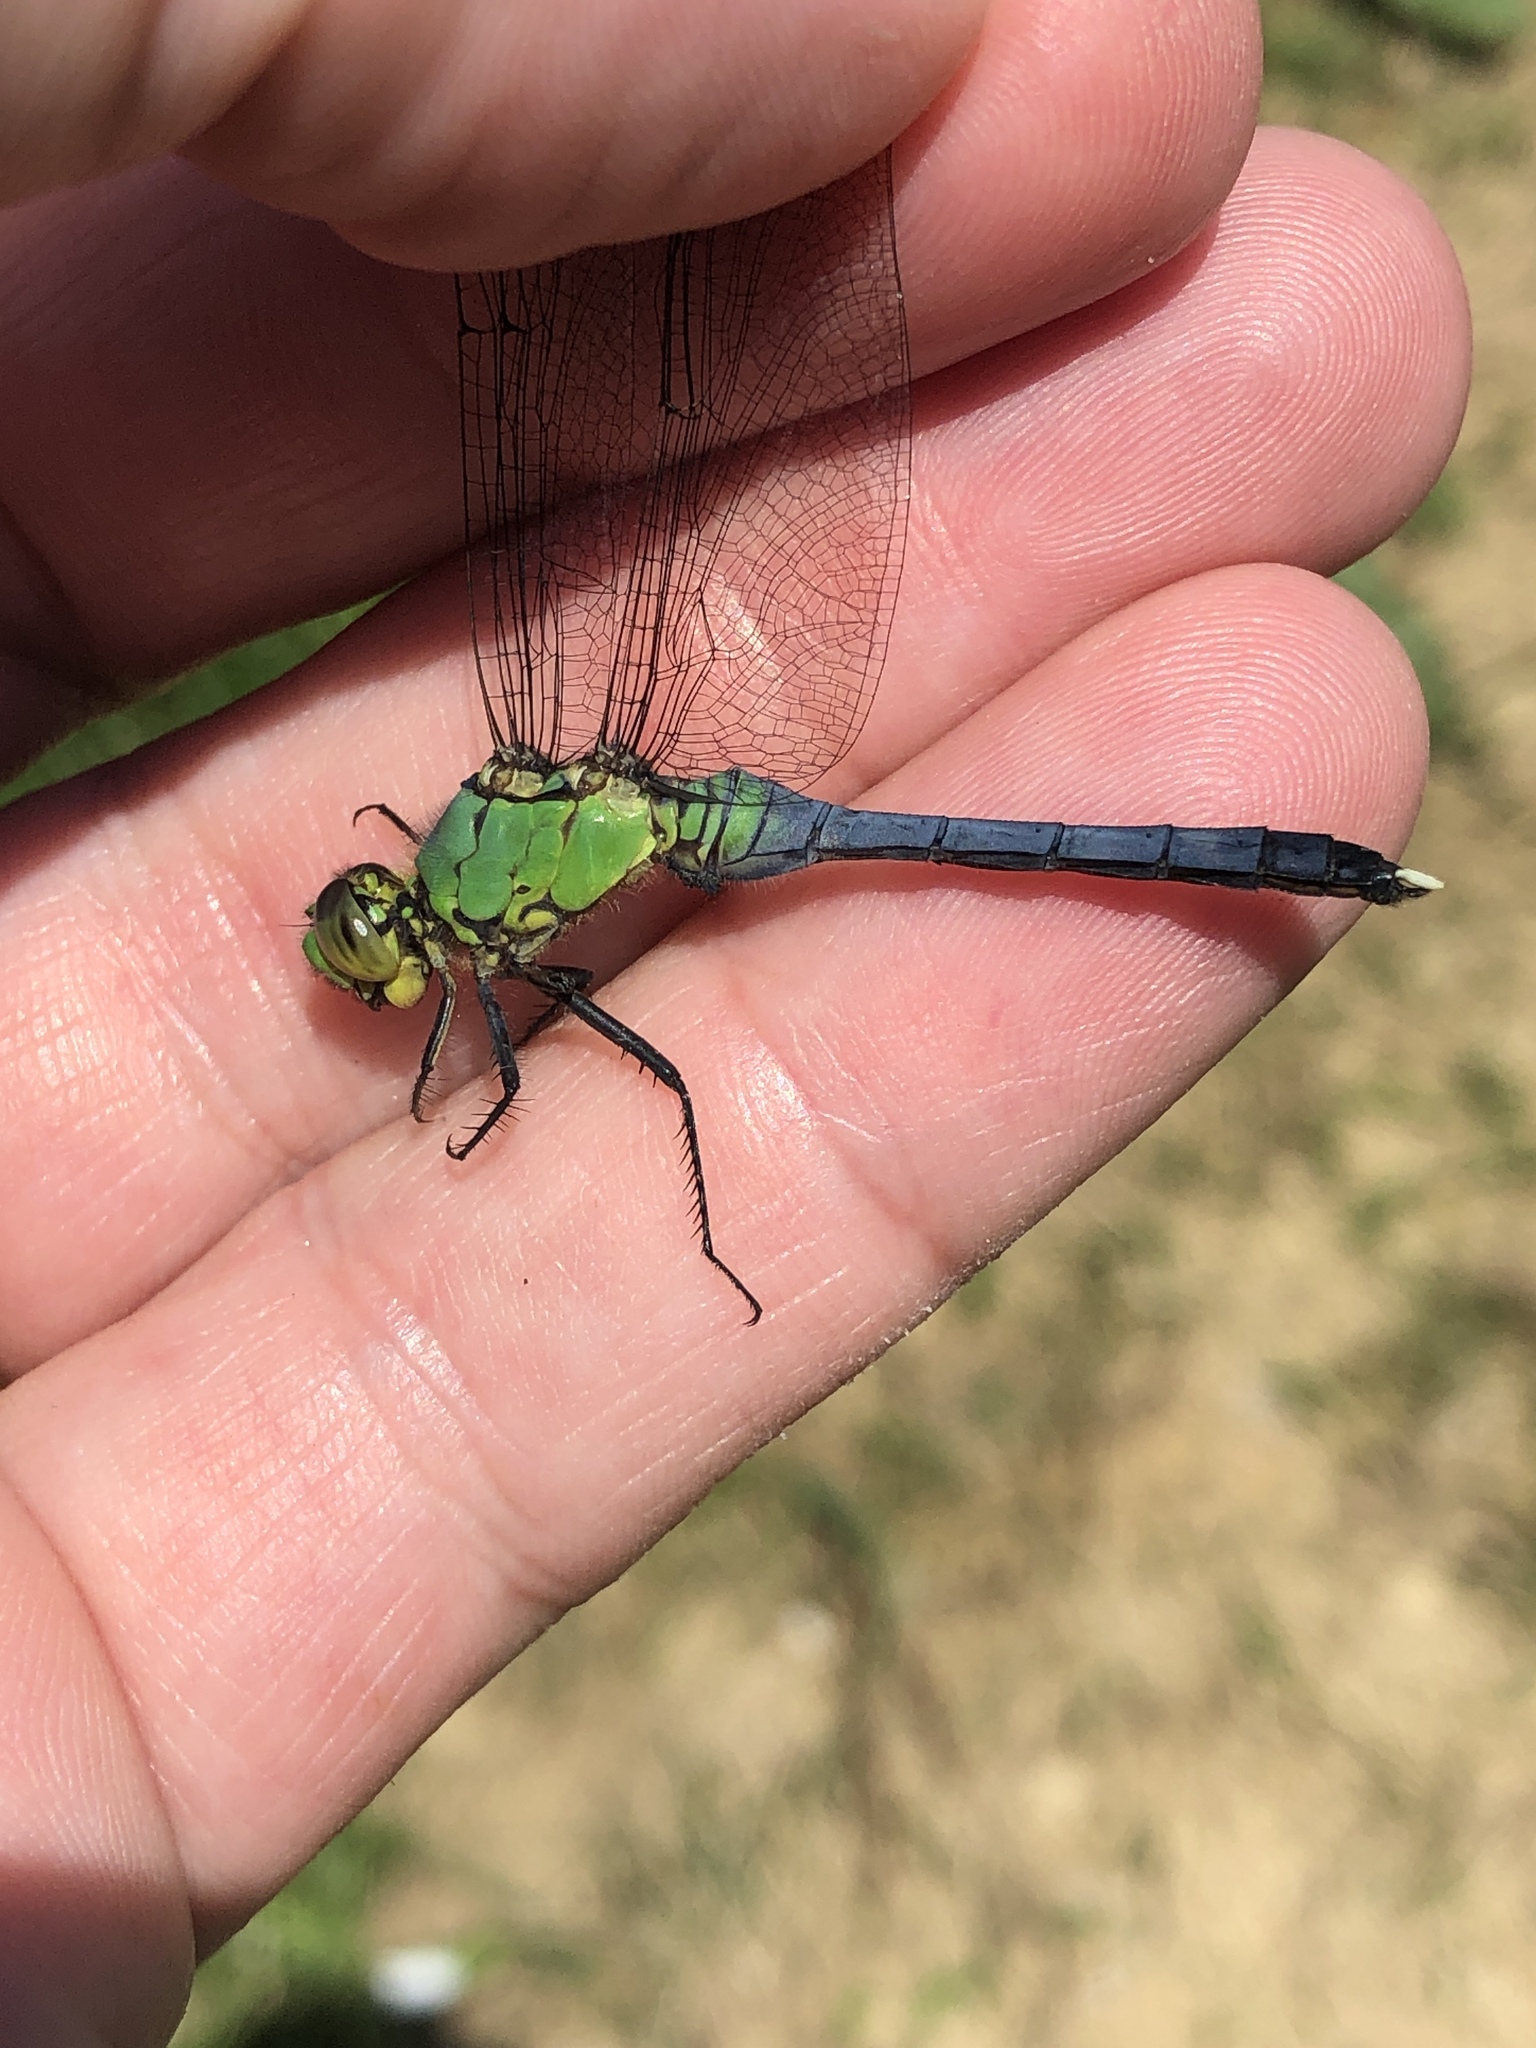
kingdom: Animalia
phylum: Arthropoda
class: Insecta
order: Odonata
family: Libellulidae
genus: Erythemis
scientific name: Erythemis simplicicollis
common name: Eastern pondhawk
